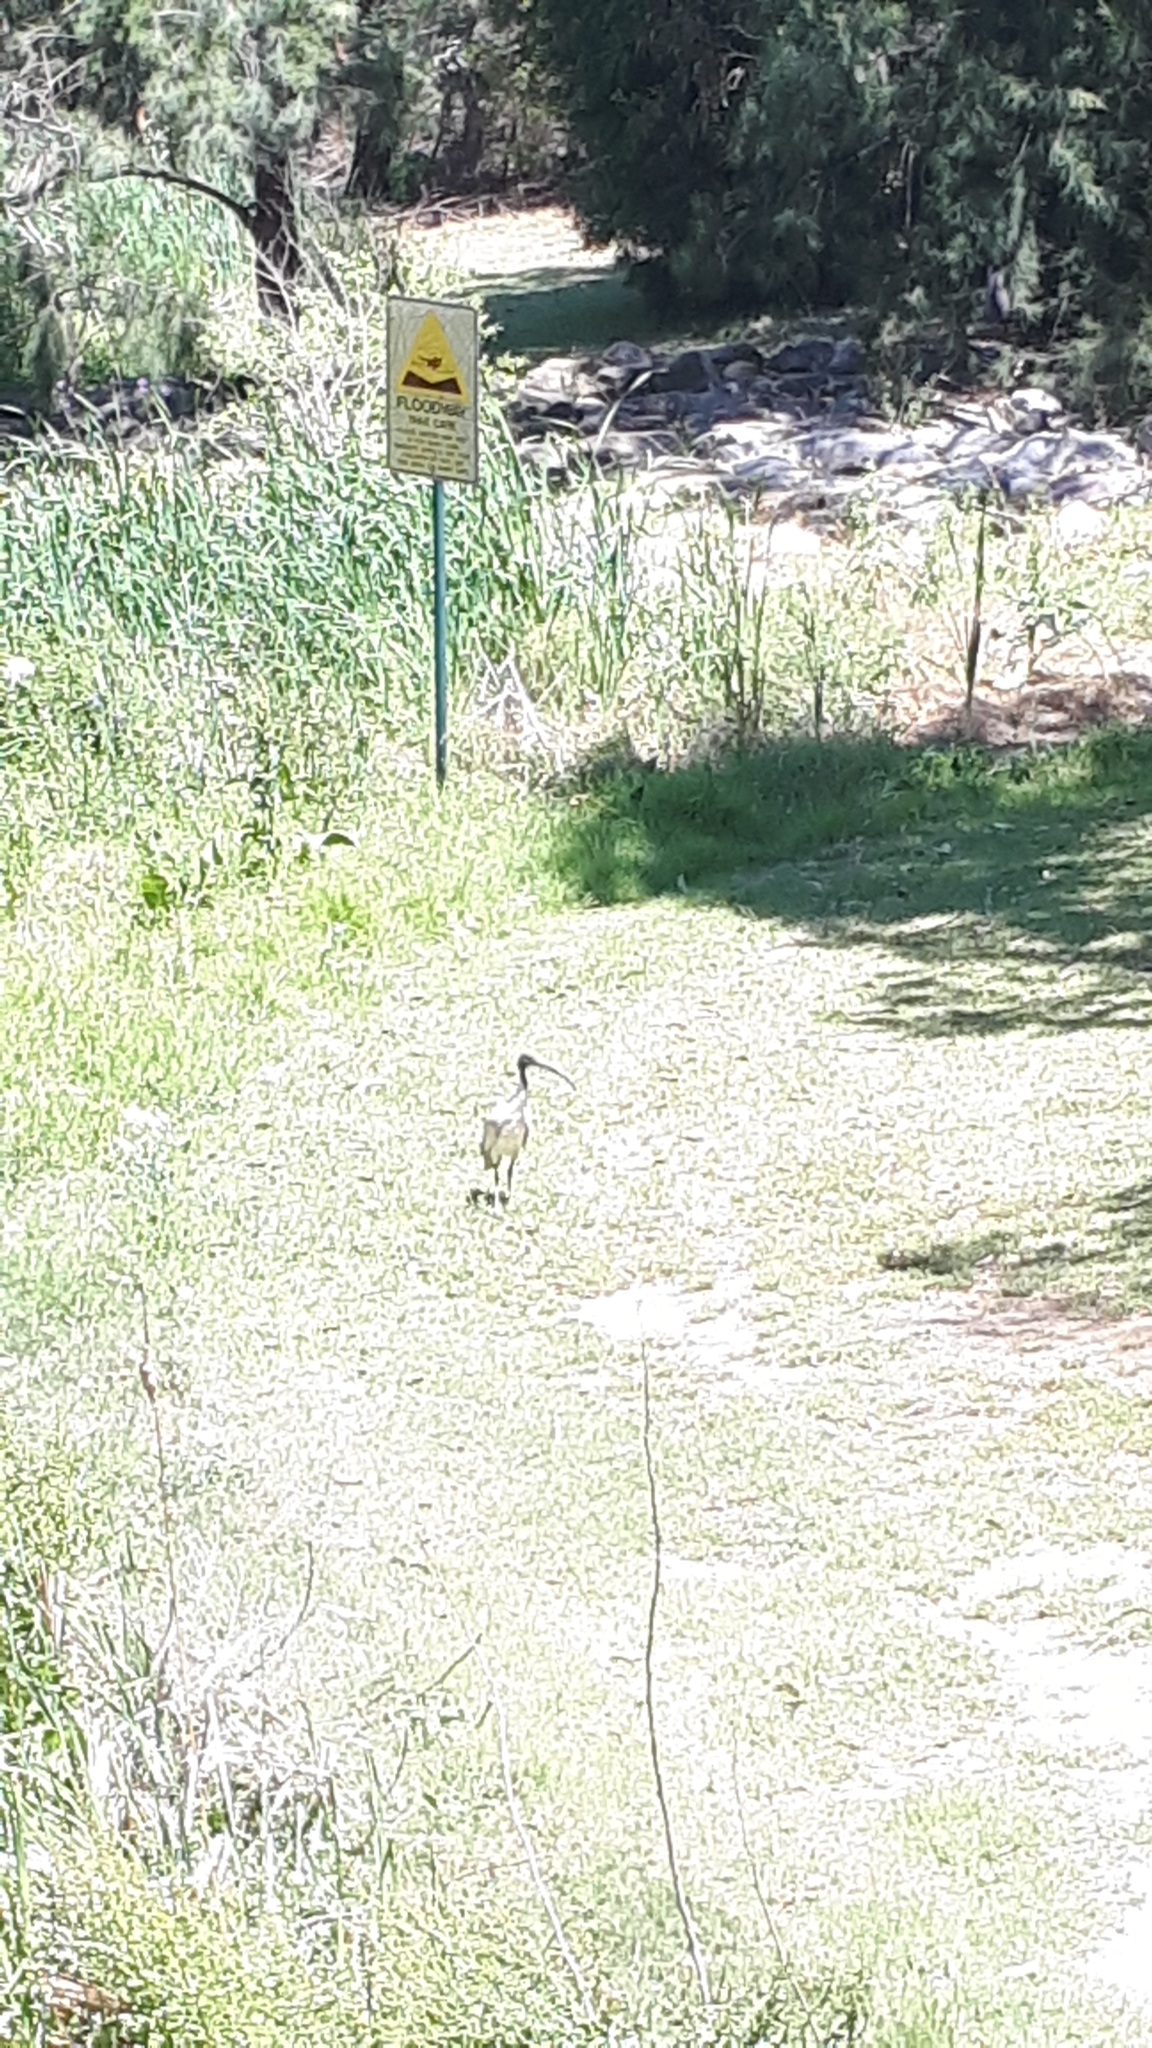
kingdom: Animalia
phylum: Chordata
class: Aves
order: Pelecaniformes
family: Threskiornithidae
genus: Threskiornis
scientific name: Threskiornis molucca
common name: Australian white ibis
